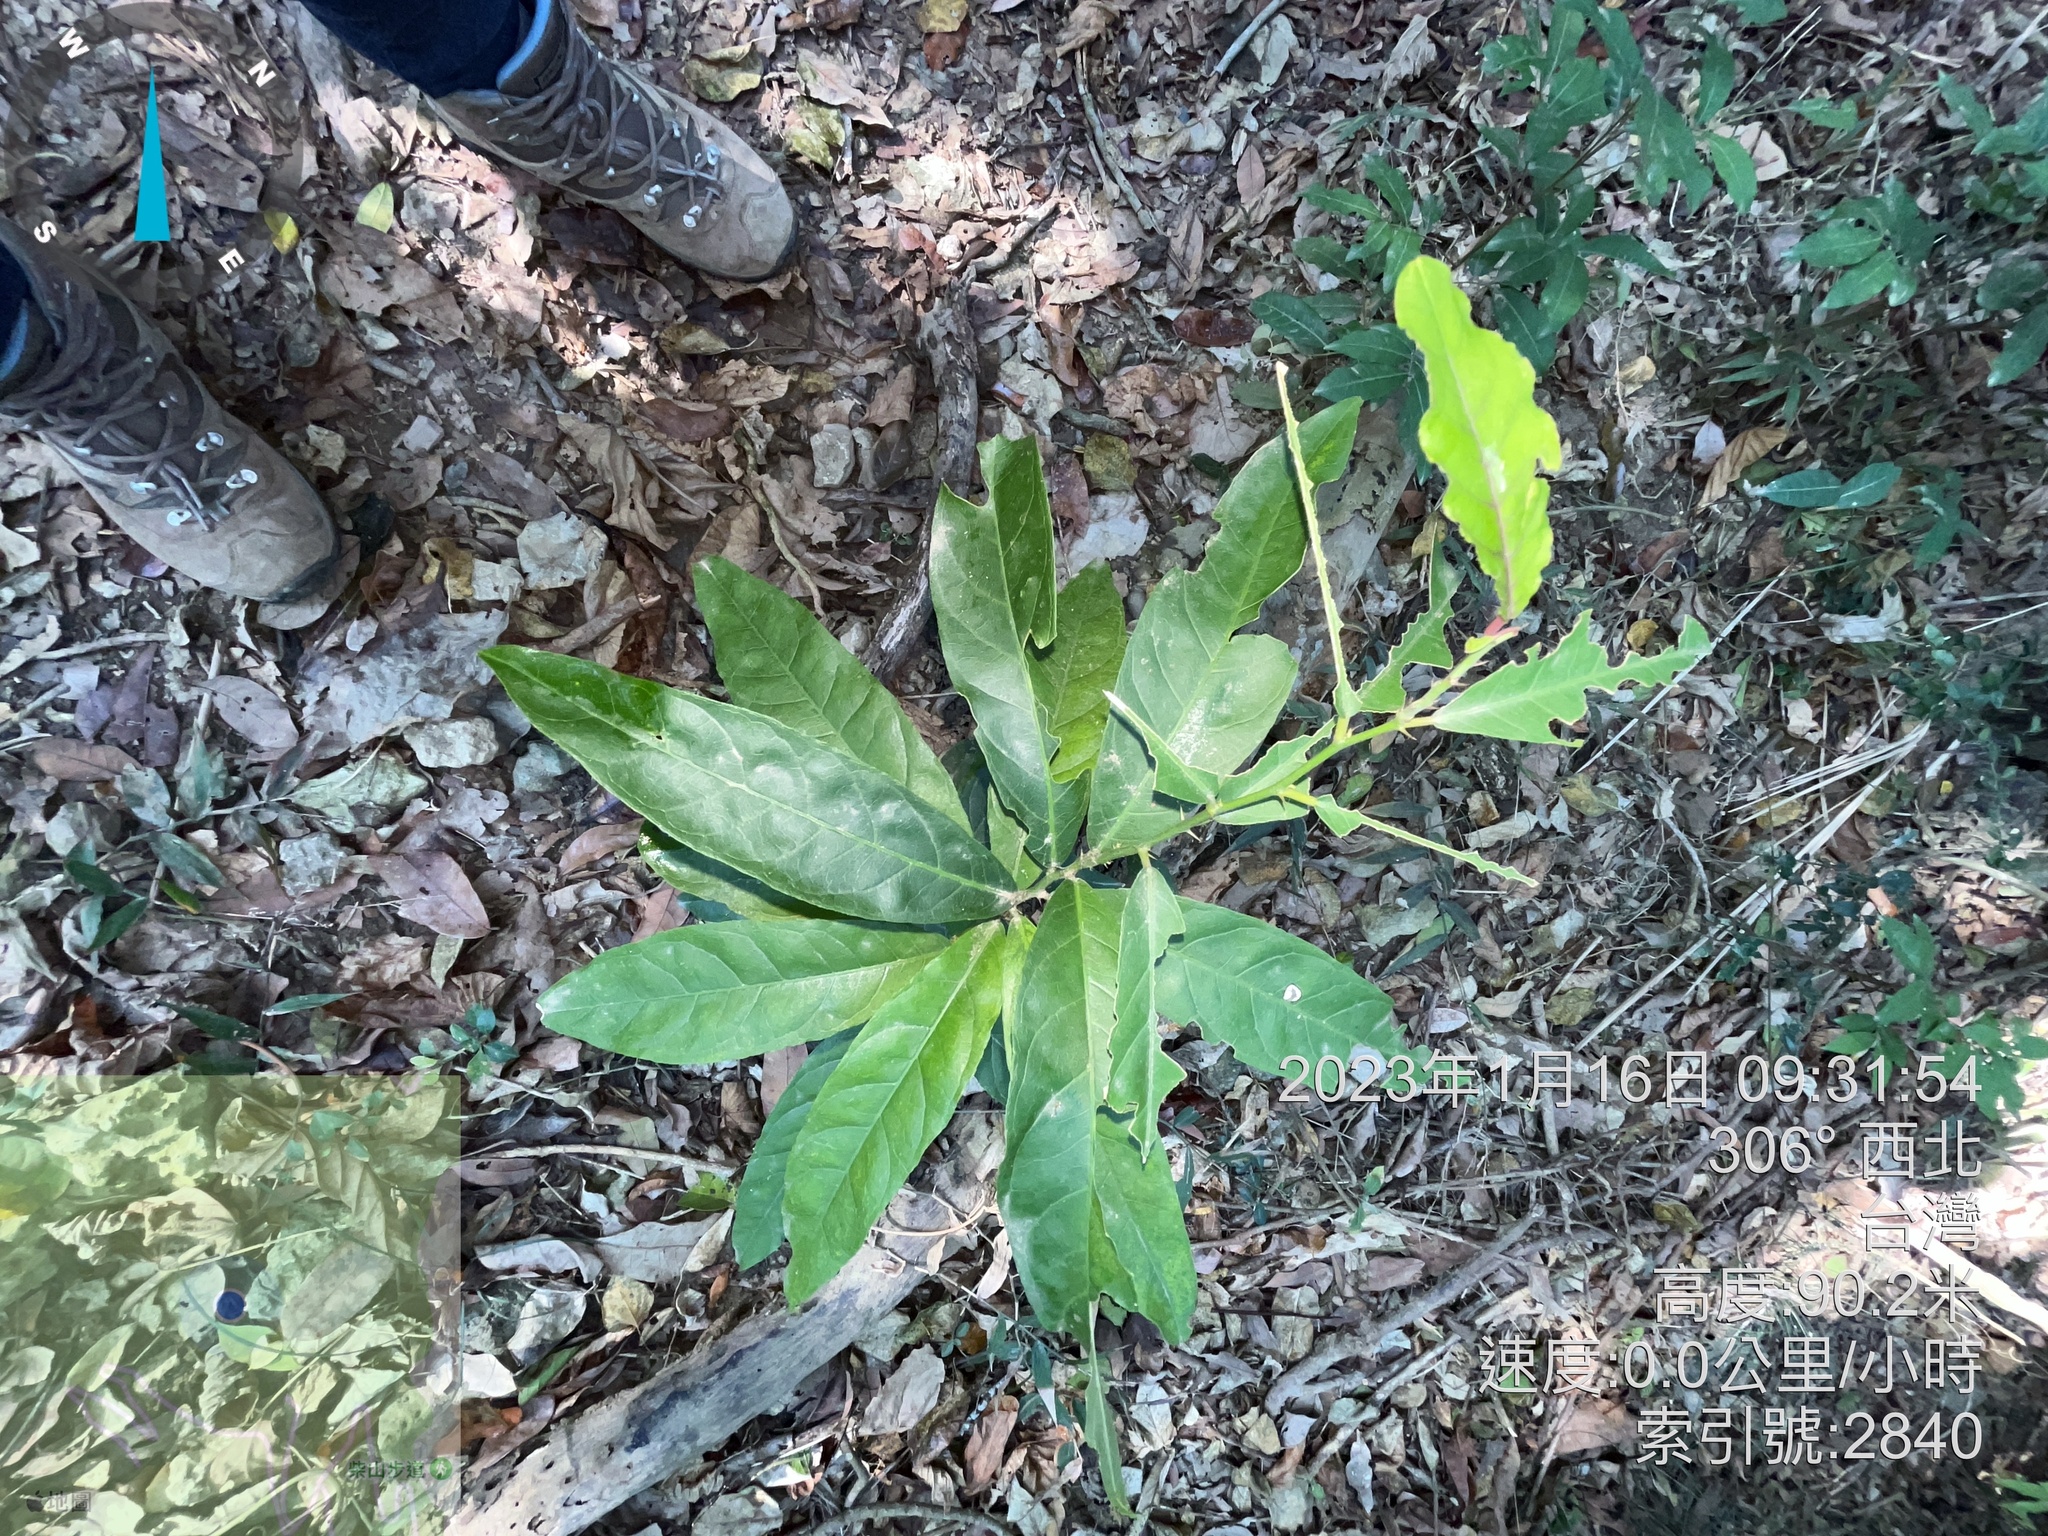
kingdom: Plantae
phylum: Tracheophyta
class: Magnoliopsida
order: Brassicales
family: Capparaceae
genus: Capparis
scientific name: Capparis micracantha
